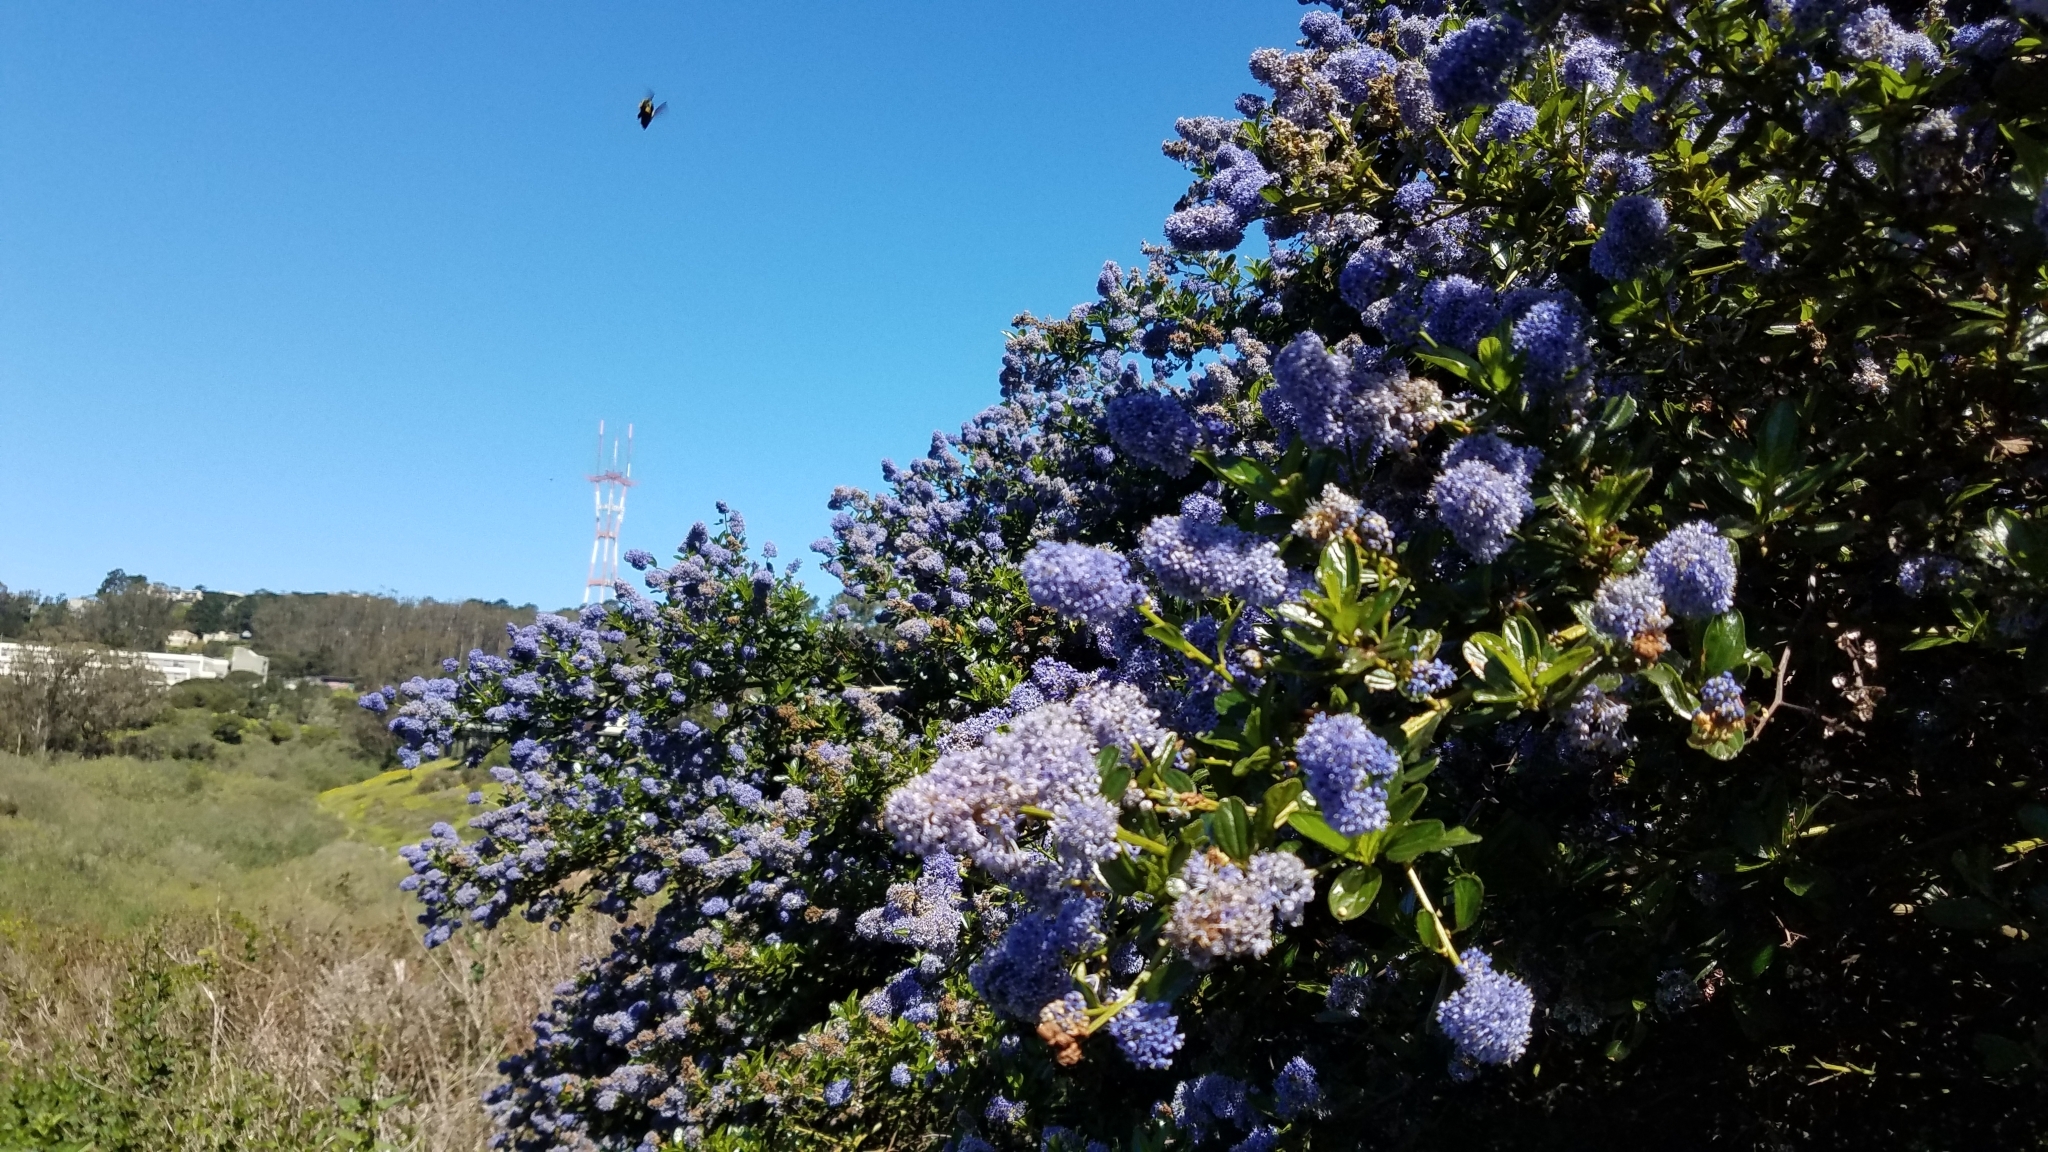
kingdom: Plantae
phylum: Tracheophyta
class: Magnoliopsida
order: Rosales
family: Rhamnaceae
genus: Ceanothus
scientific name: Ceanothus thyrsiflorus
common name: California-lilac
